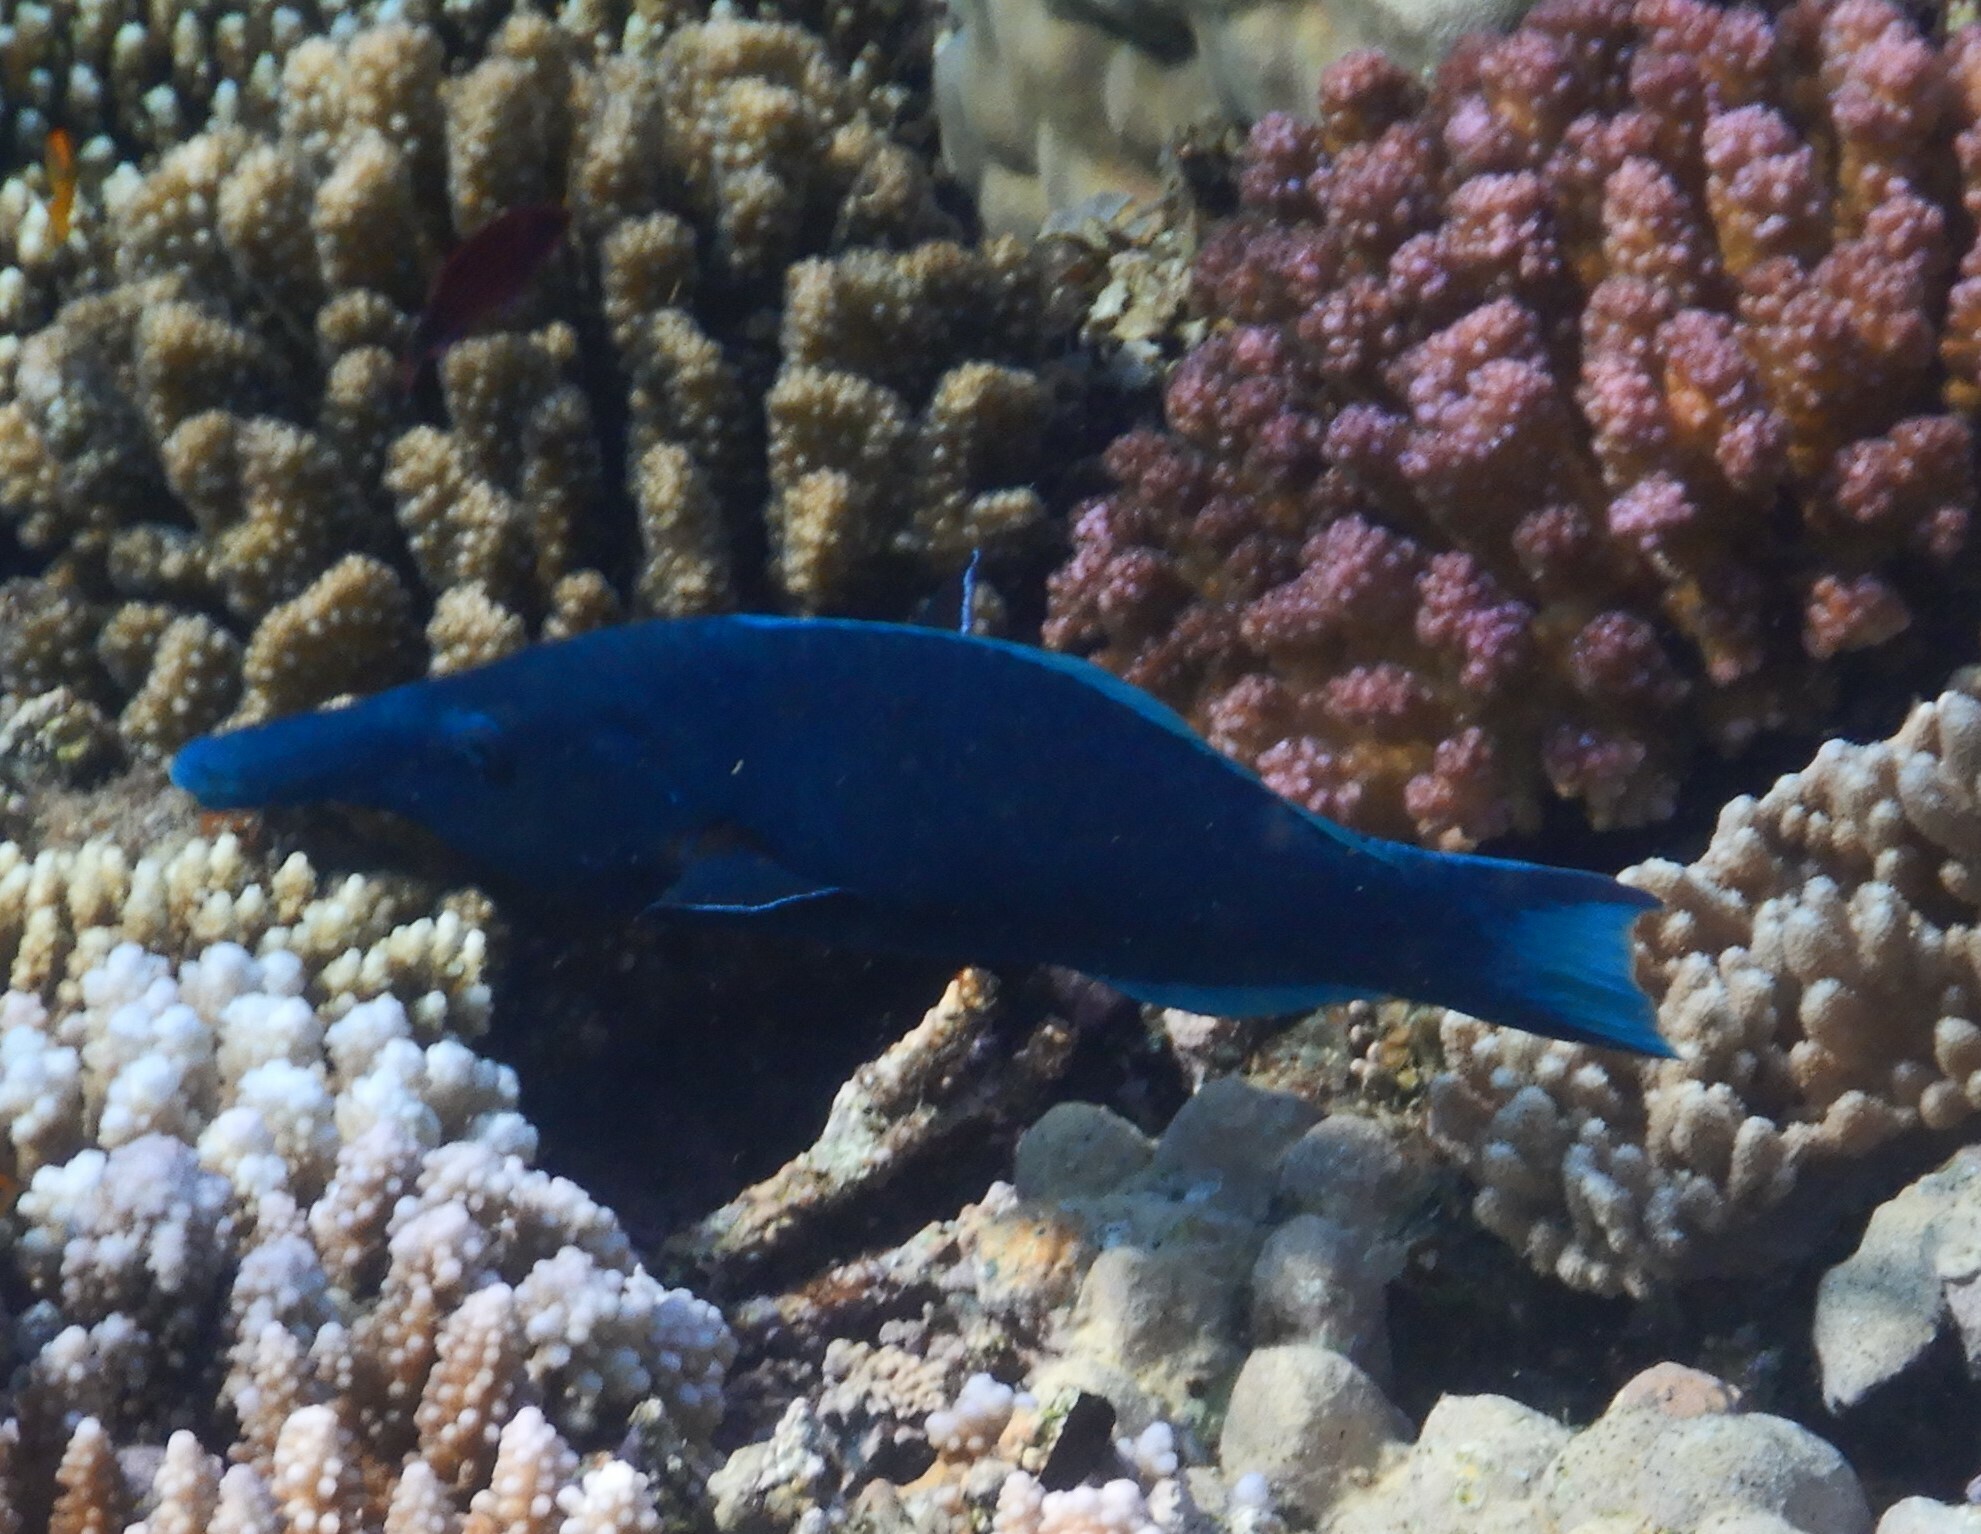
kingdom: Animalia
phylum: Chordata
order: Perciformes
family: Labridae
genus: Gomphosus
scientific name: Gomphosus klunzingeri
